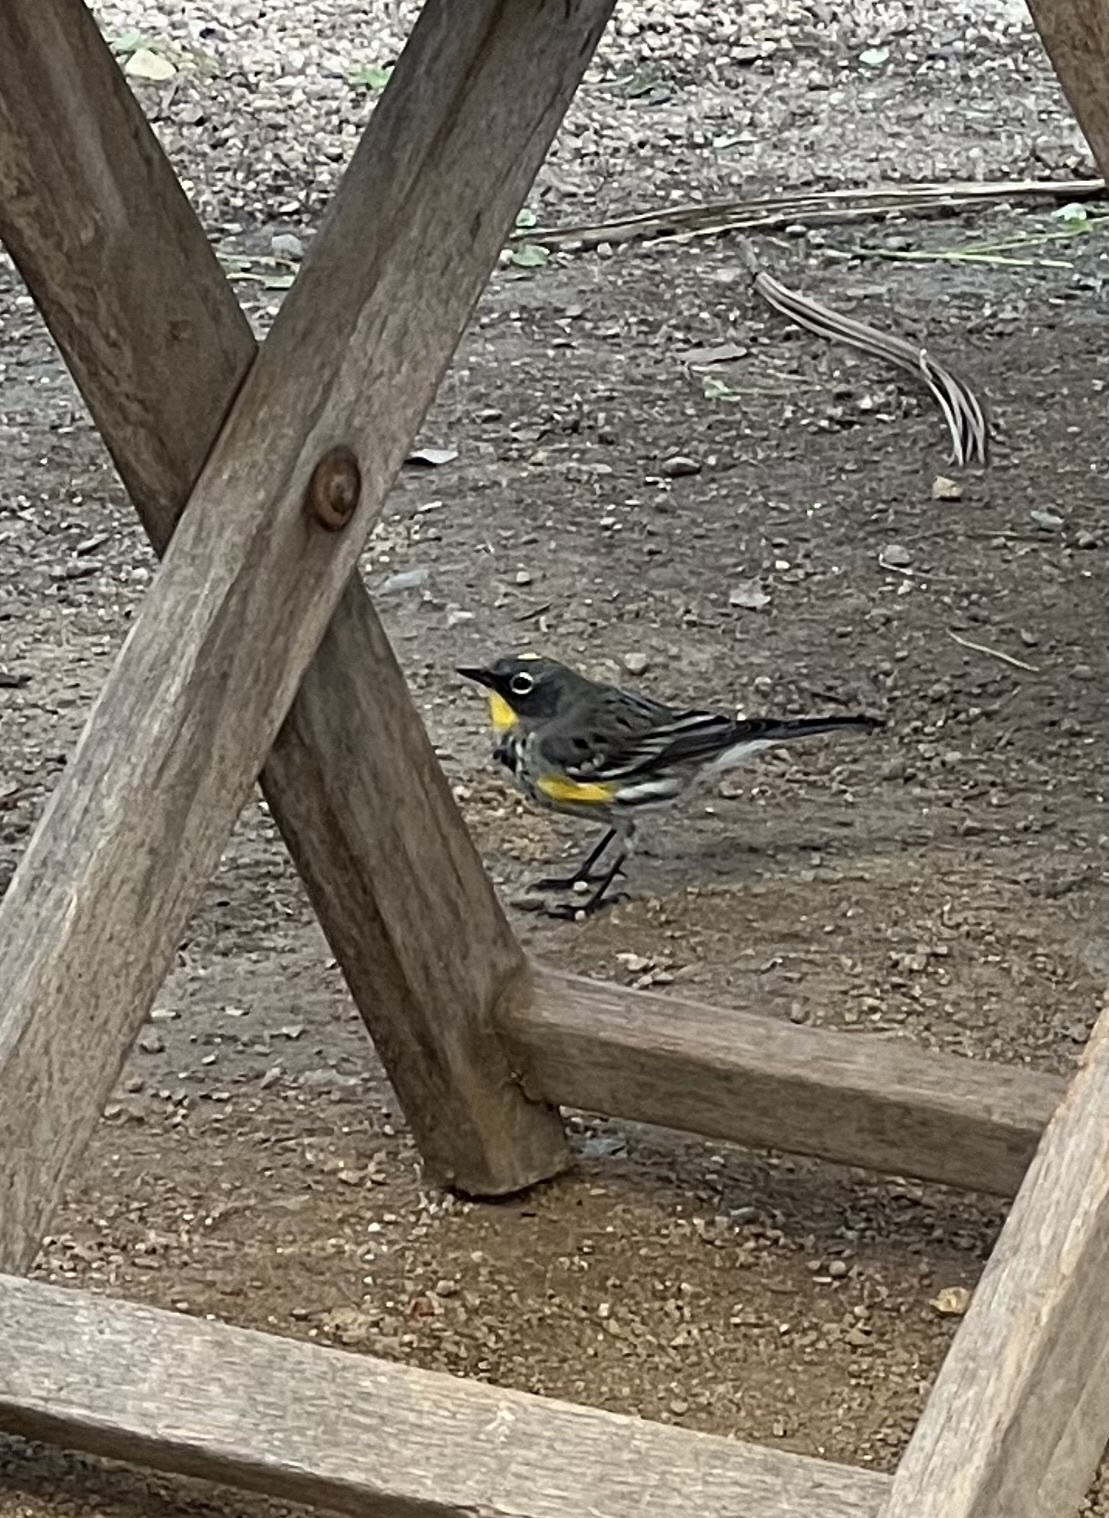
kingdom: Animalia
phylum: Chordata
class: Aves
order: Passeriformes
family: Parulidae
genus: Setophaga
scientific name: Setophaga coronata
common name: Myrtle warbler
